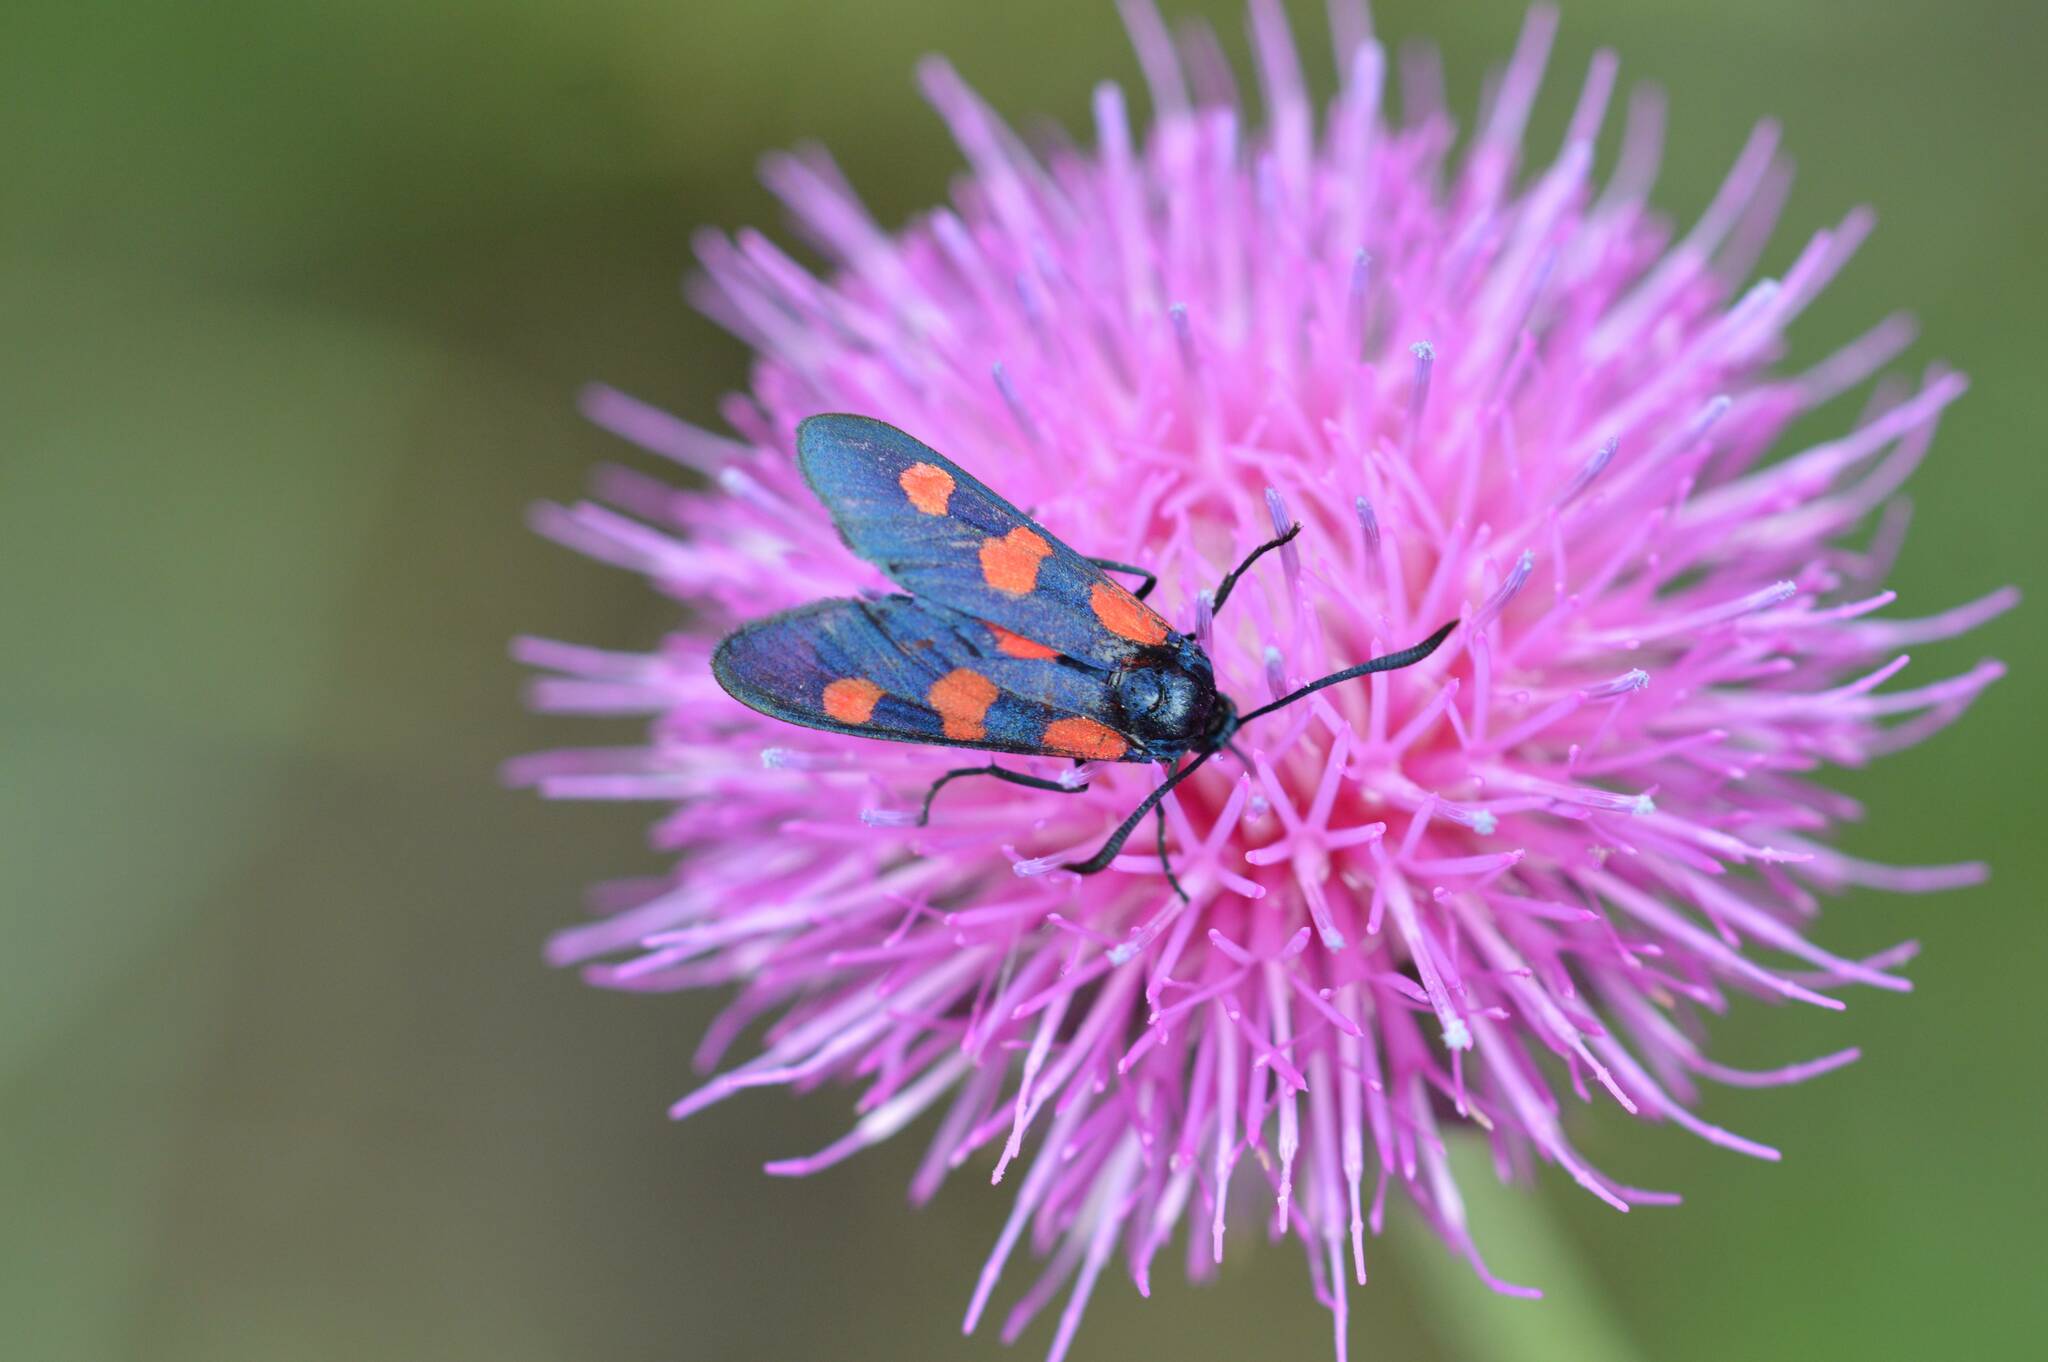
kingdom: Animalia
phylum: Arthropoda
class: Insecta
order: Lepidoptera
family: Zygaenidae
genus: Zygaena
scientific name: Zygaena trifolii
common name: Five-spot burnet
